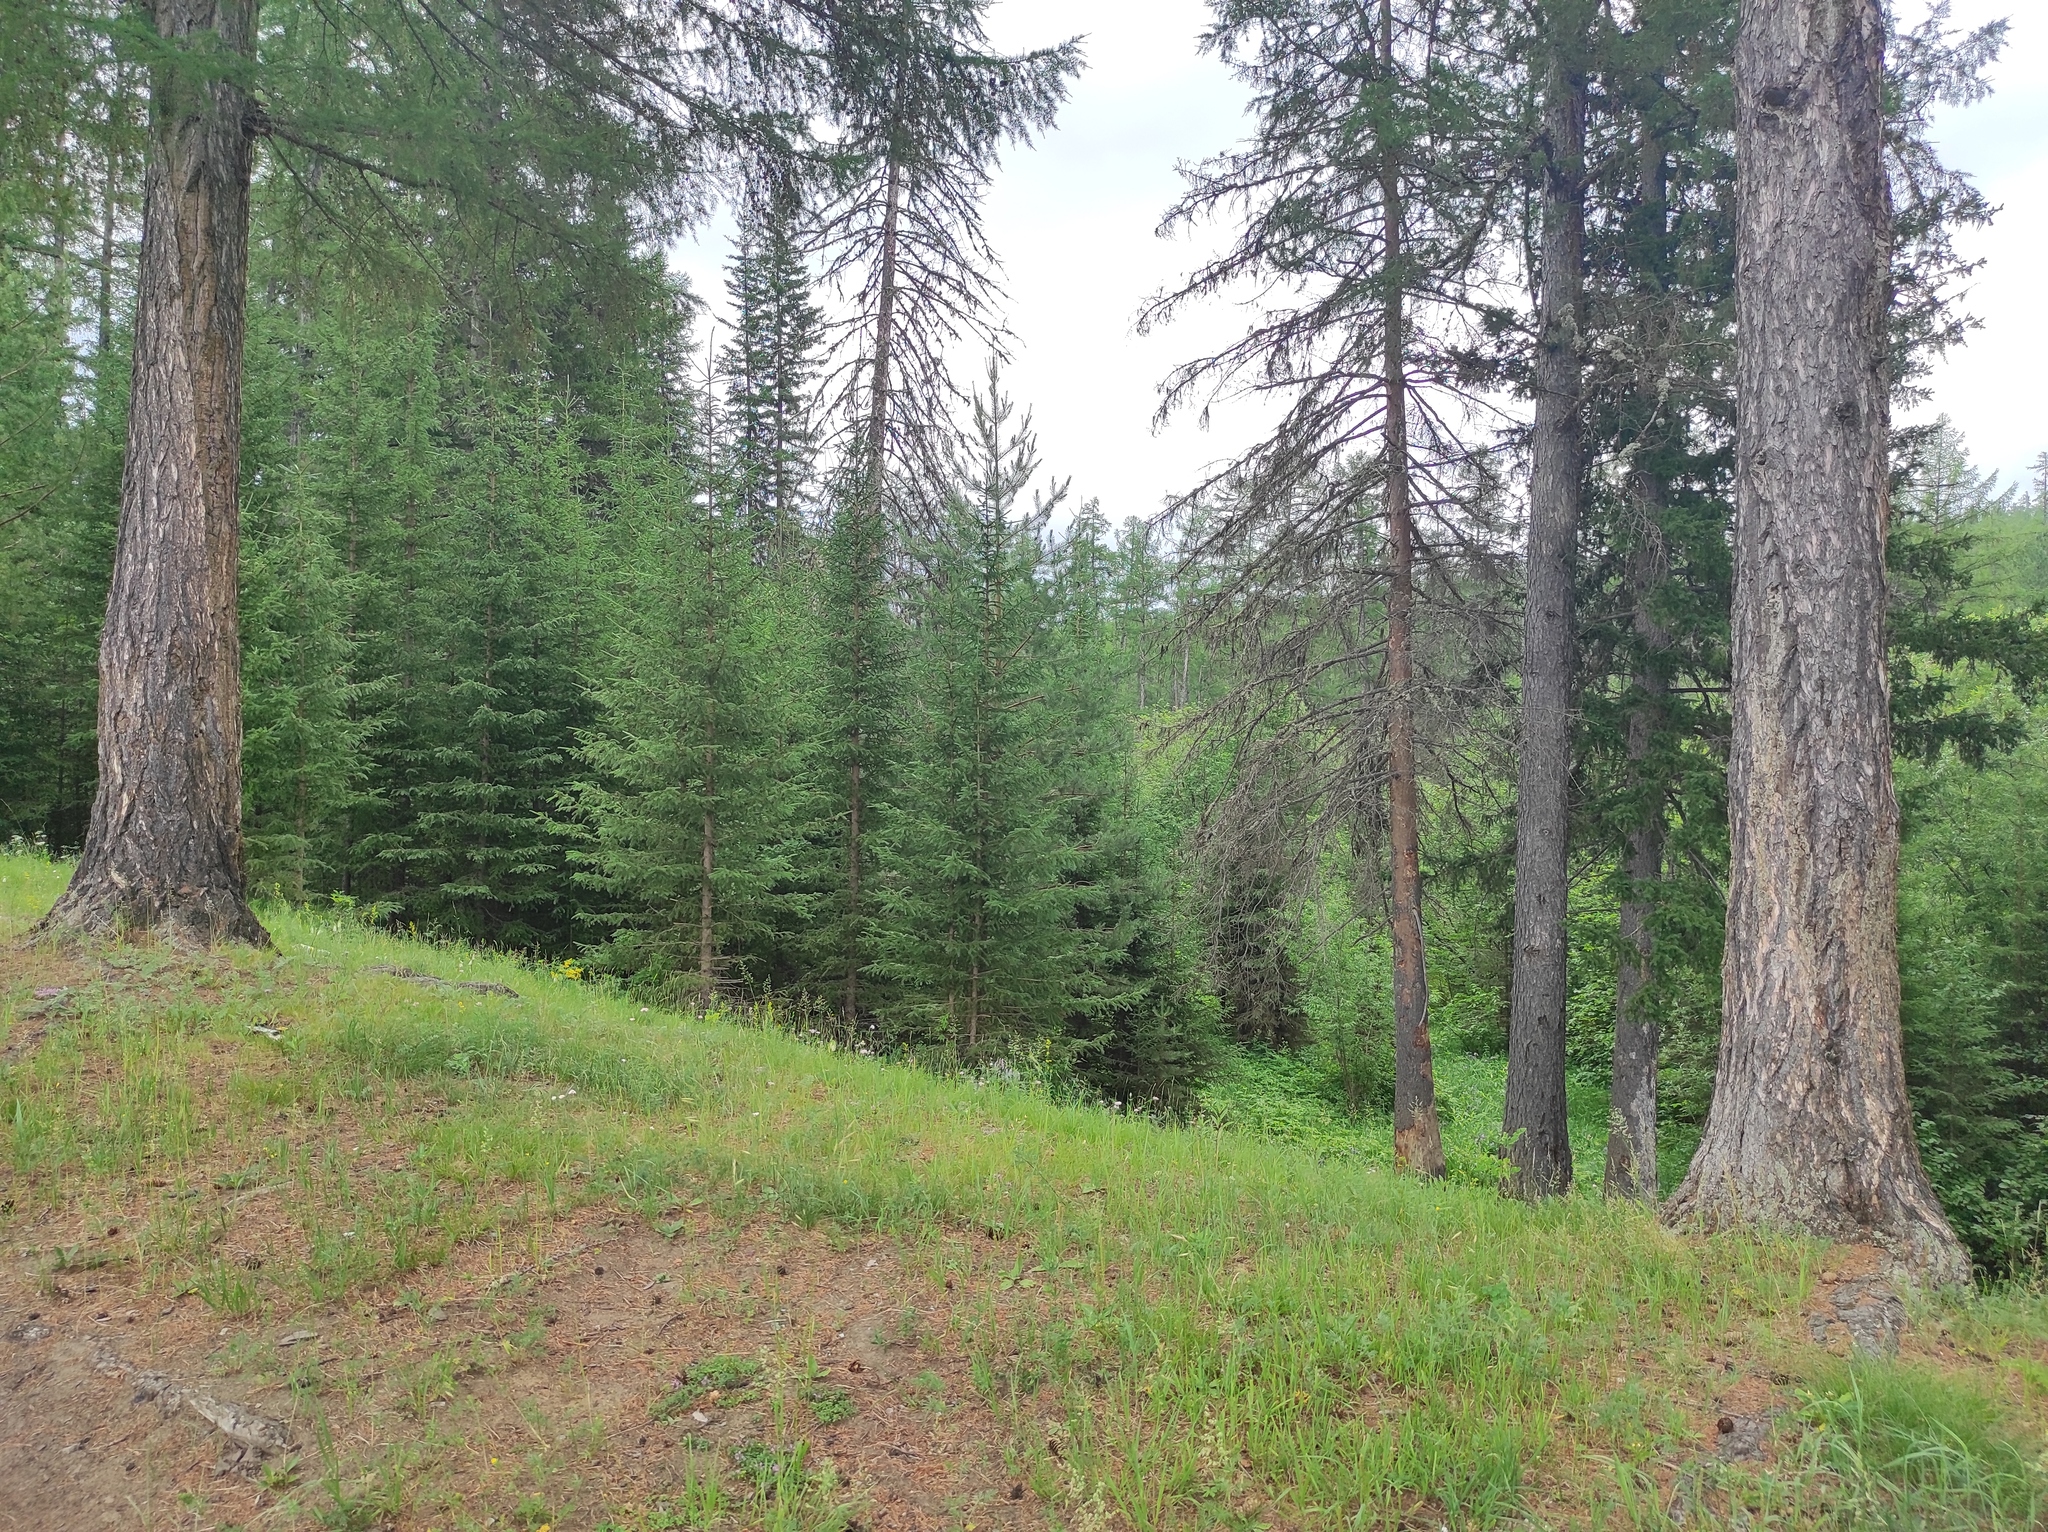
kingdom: Plantae
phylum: Tracheophyta
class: Pinopsida
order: Pinales
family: Pinaceae
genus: Larix
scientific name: Larix gmelinii
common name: Dahurian larch
